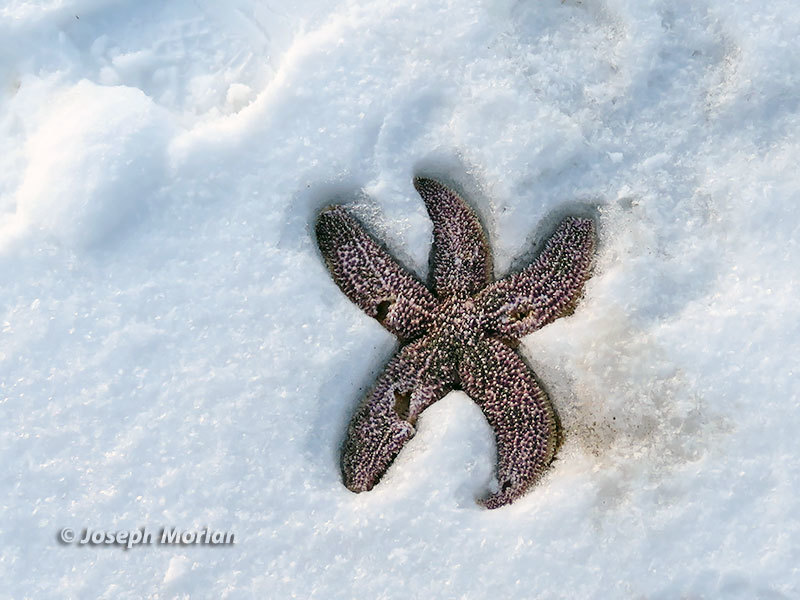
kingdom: Animalia
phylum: Echinodermata
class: Asteroidea
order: Forcipulatida
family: Asteriidae
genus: Asterias
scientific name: Asterias amurensis
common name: Flat-bottomed star
